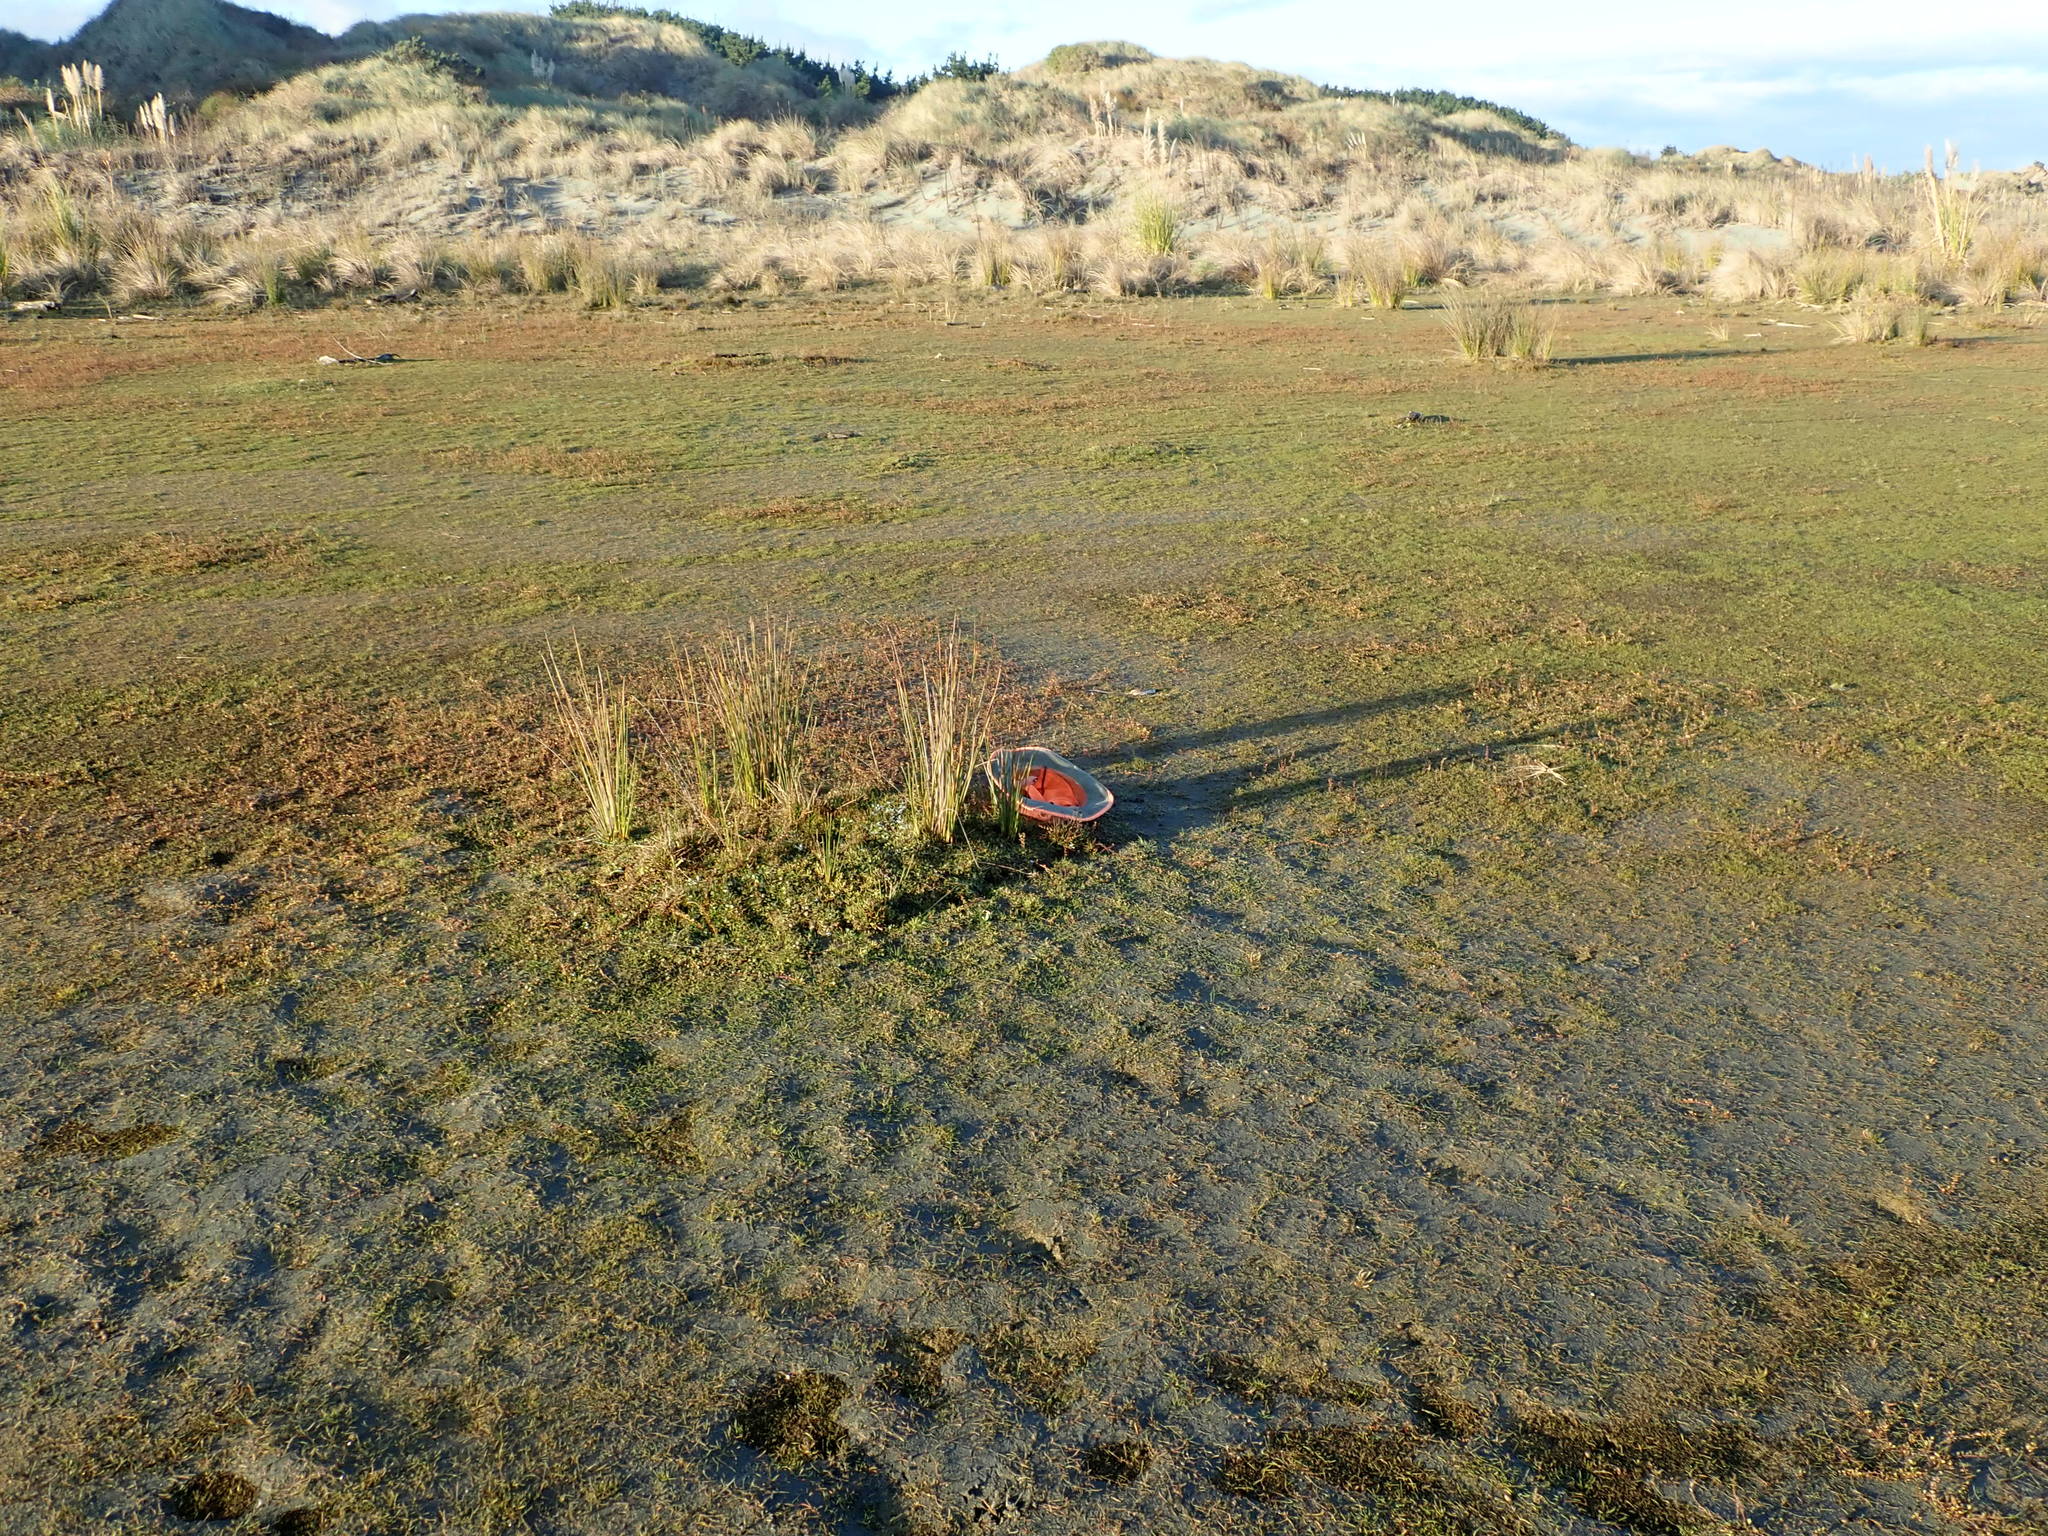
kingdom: Plantae
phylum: Tracheophyta
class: Magnoliopsida
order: Asterales
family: Asteraceae
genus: Helichrysum
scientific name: Helichrysum luteoalbum
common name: Daisy
